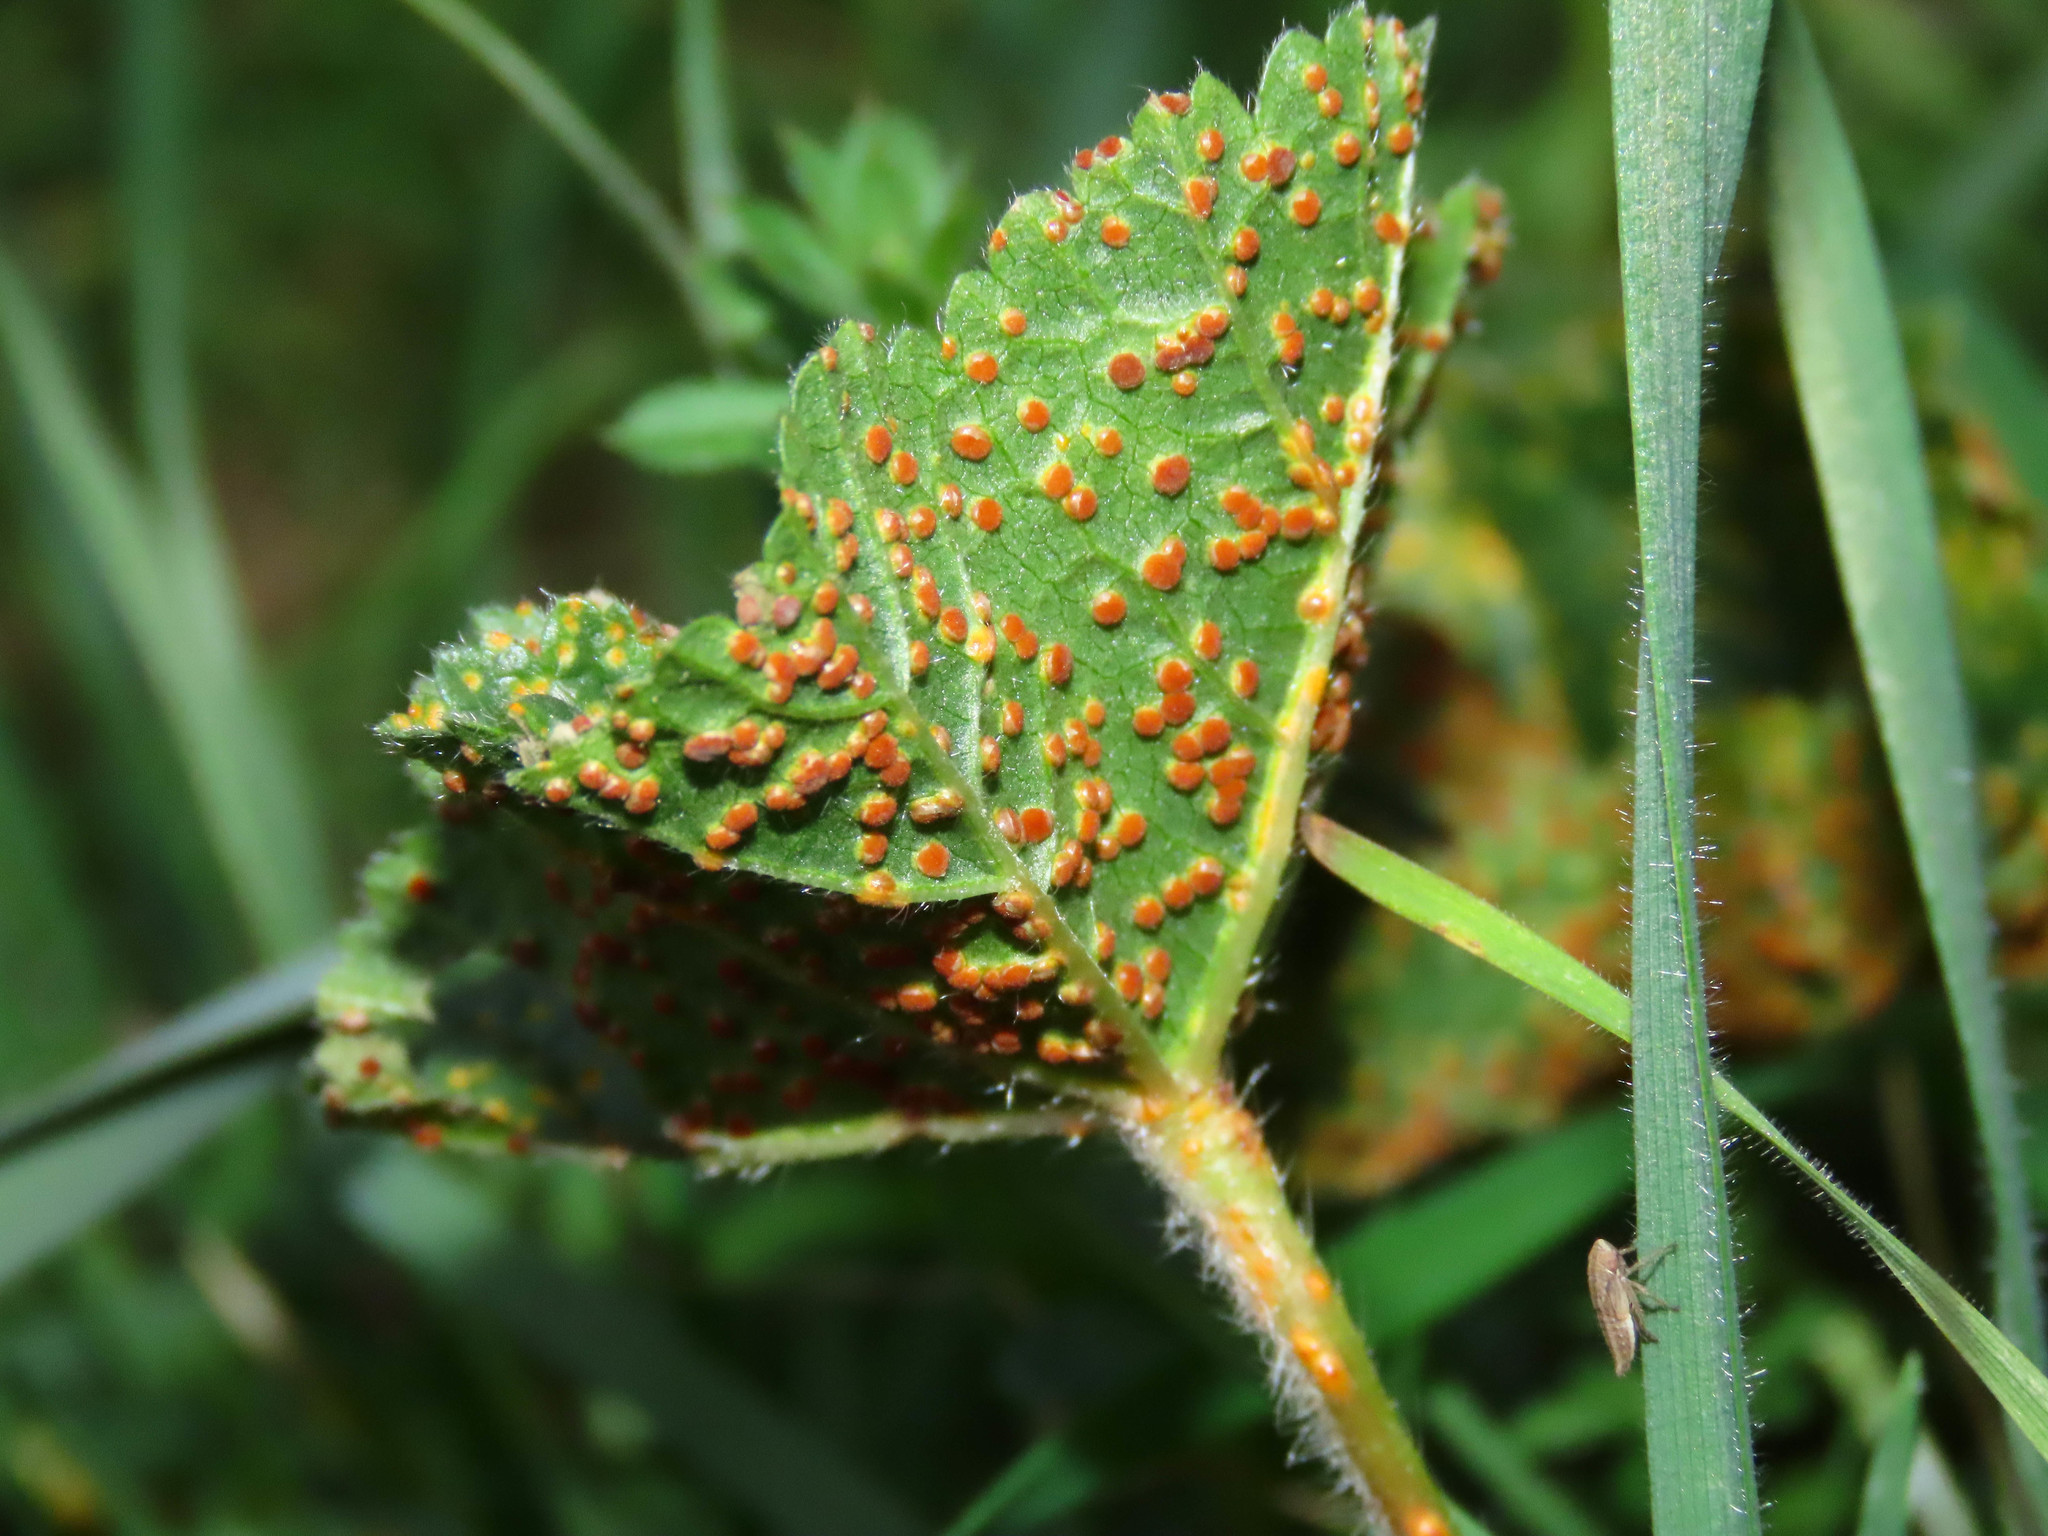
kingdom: Fungi
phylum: Basidiomycota
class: Pucciniomycetes
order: Pucciniales
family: Pucciniaceae
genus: Puccinia
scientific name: Puccinia malvacearum
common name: Hollyhock rust
